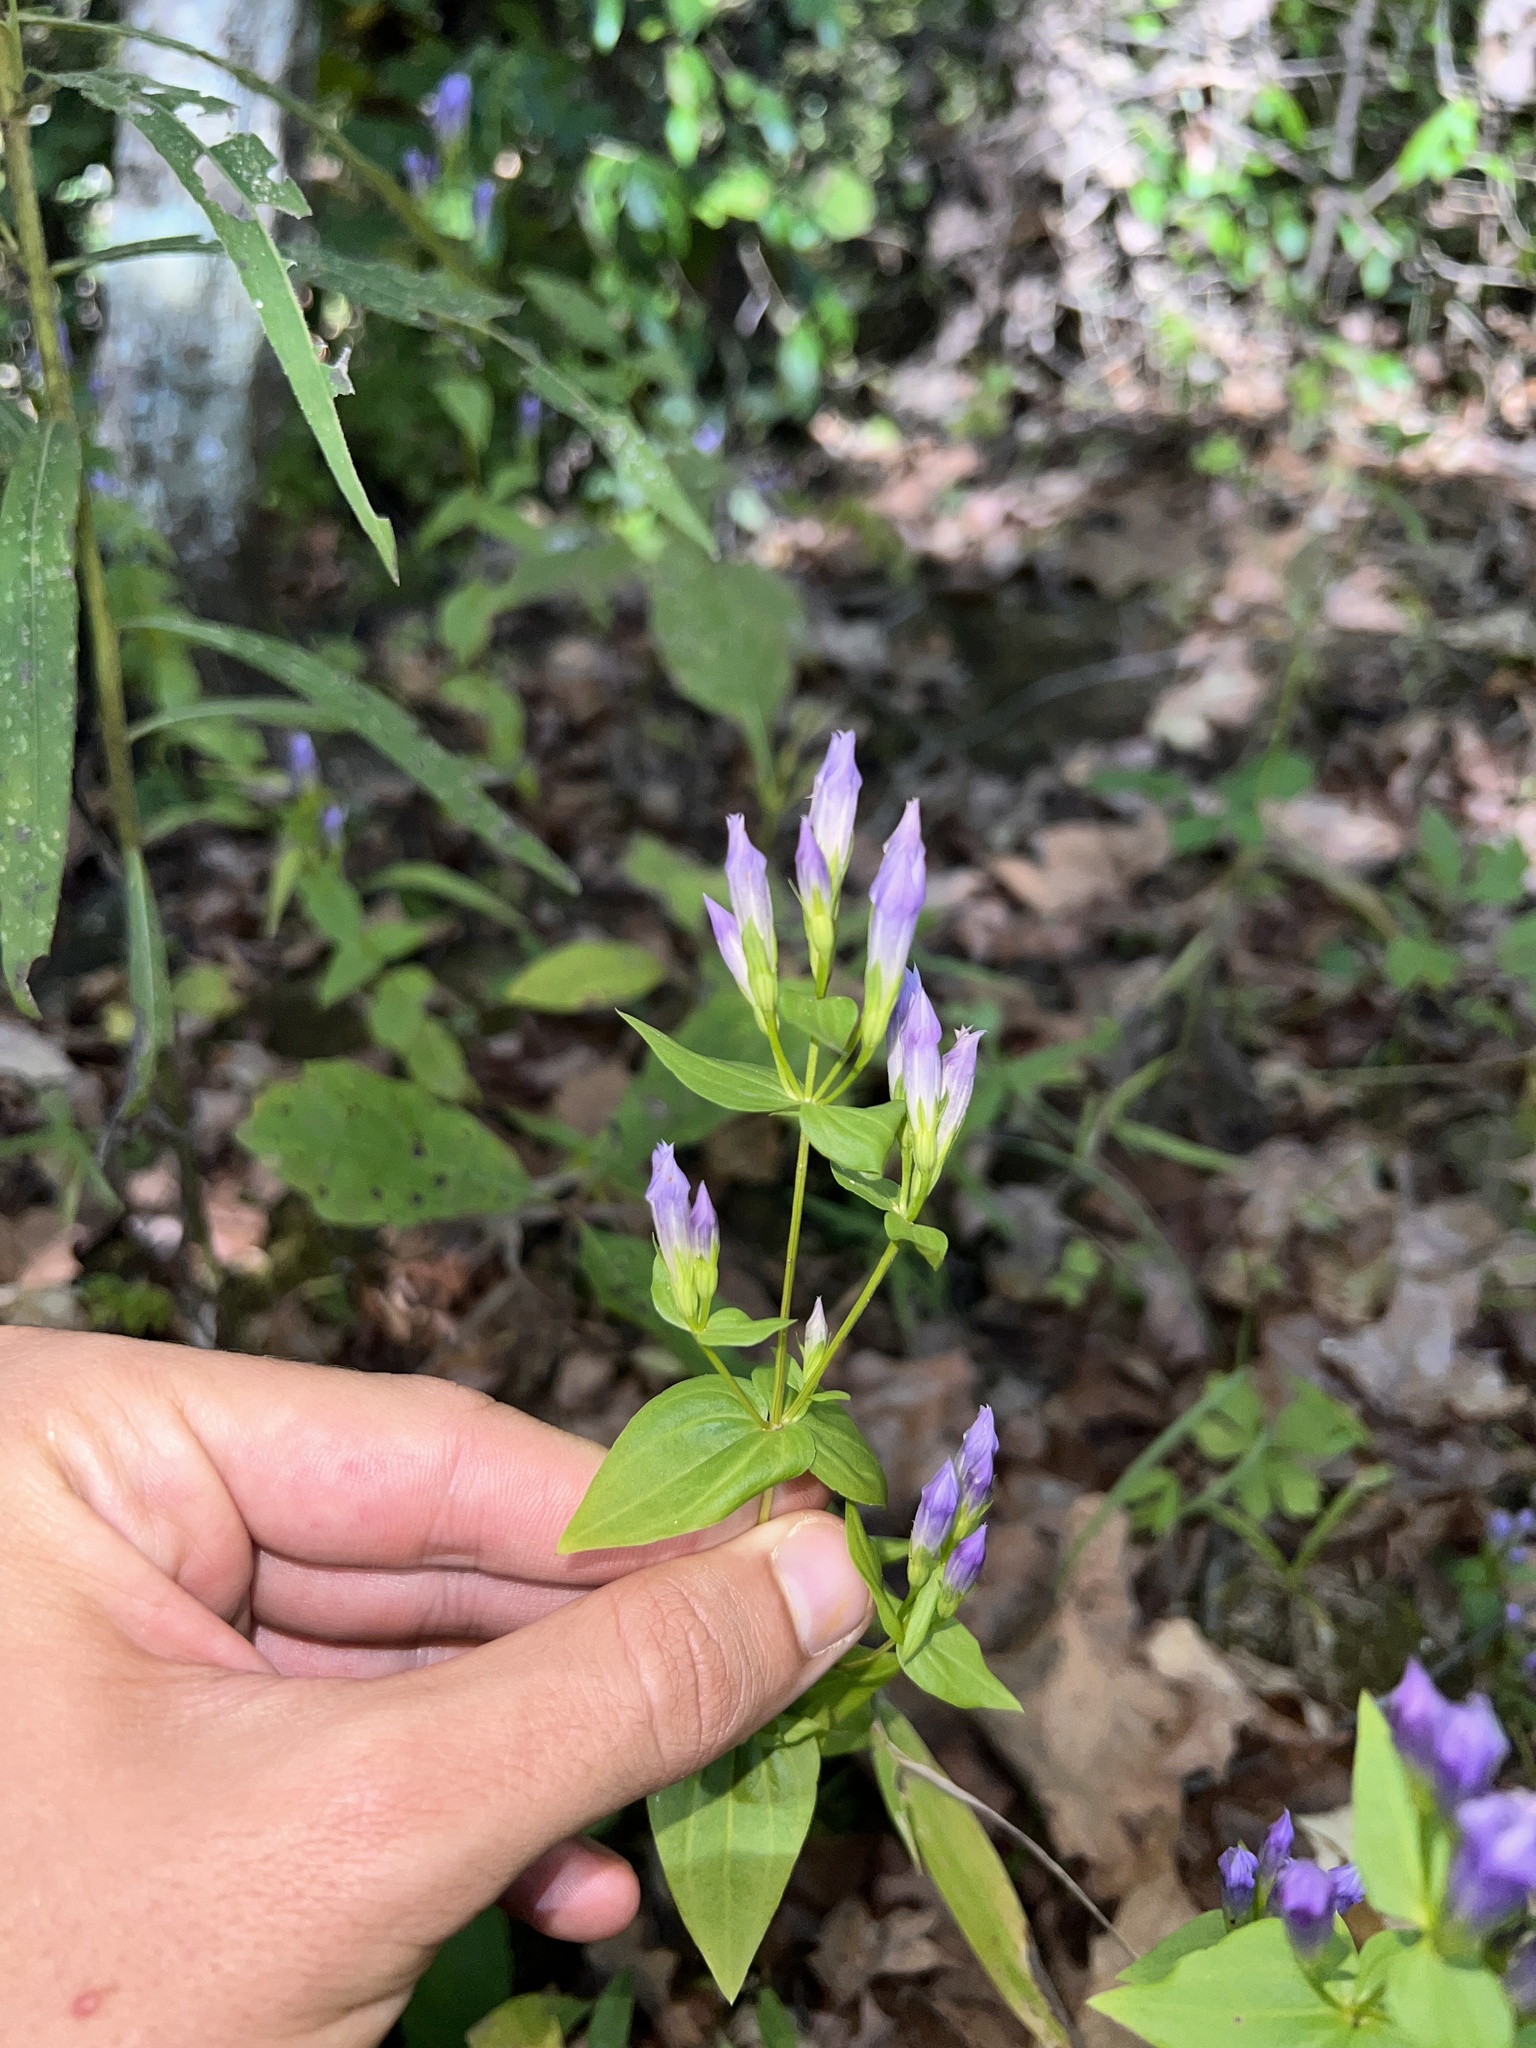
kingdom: Plantae
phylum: Tracheophyta
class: Magnoliopsida
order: Gentianales
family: Gentianaceae
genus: Gentianella
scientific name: Gentianella quinquefolia
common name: Agueweed
